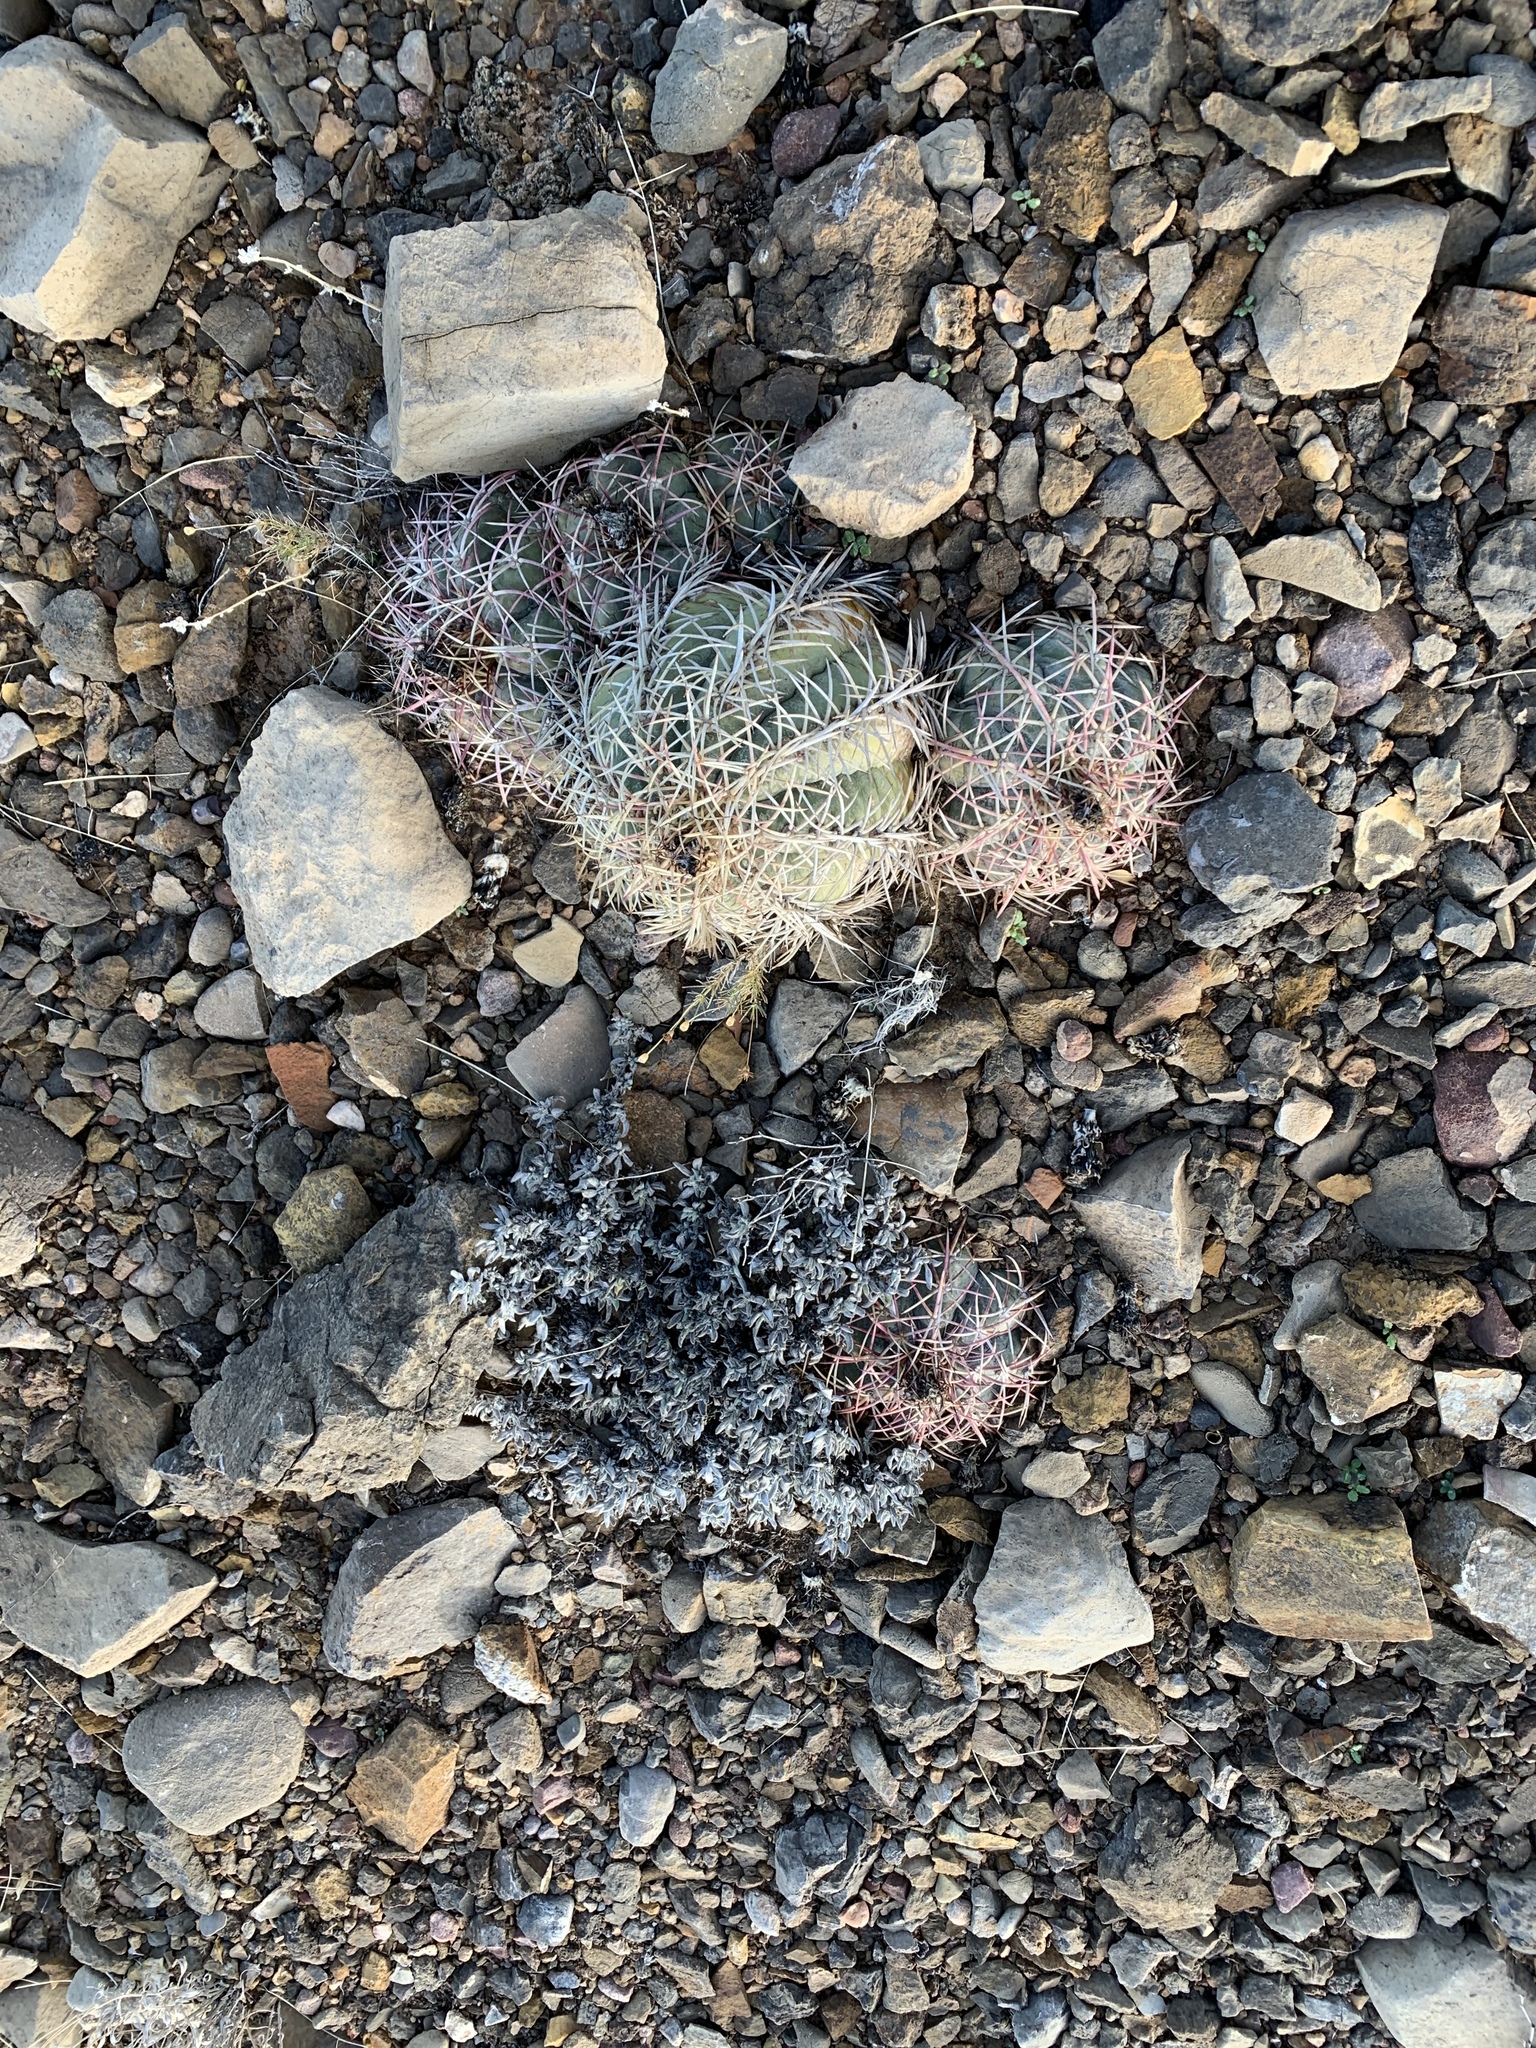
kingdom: Plantae
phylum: Tracheophyta
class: Magnoliopsida
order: Caryophyllales
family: Cactaceae
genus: Echinocactus
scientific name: Echinocactus horizonthalonius
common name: Devilshead
